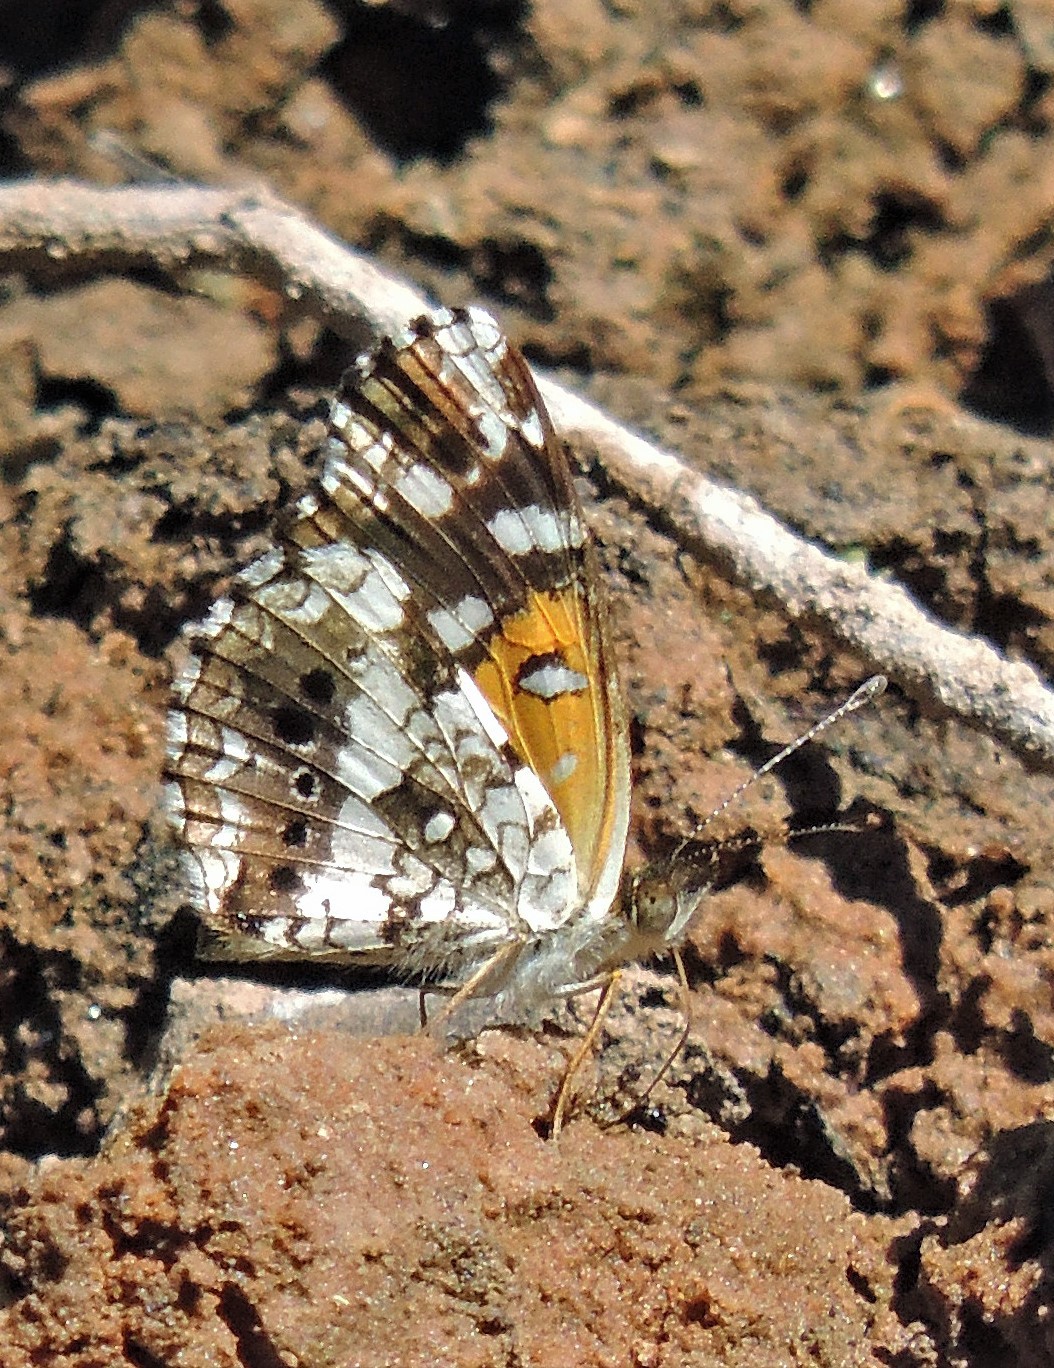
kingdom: Animalia
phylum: Arthropoda
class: Insecta
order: Lepidoptera
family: Nymphalidae
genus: Ortilia
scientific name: Ortilia ithra
